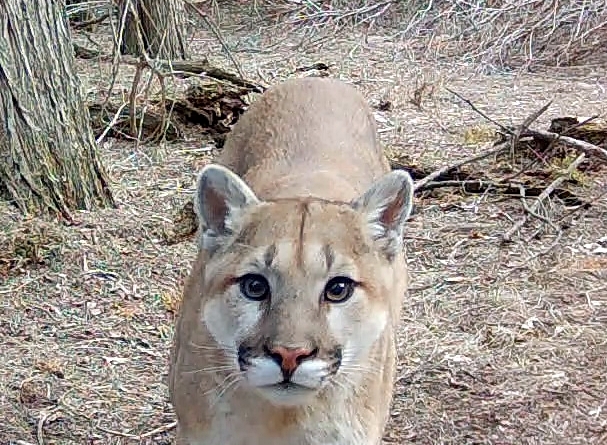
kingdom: Animalia
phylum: Chordata
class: Mammalia
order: Carnivora
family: Felidae
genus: Puma
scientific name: Puma concolor
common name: Puma
